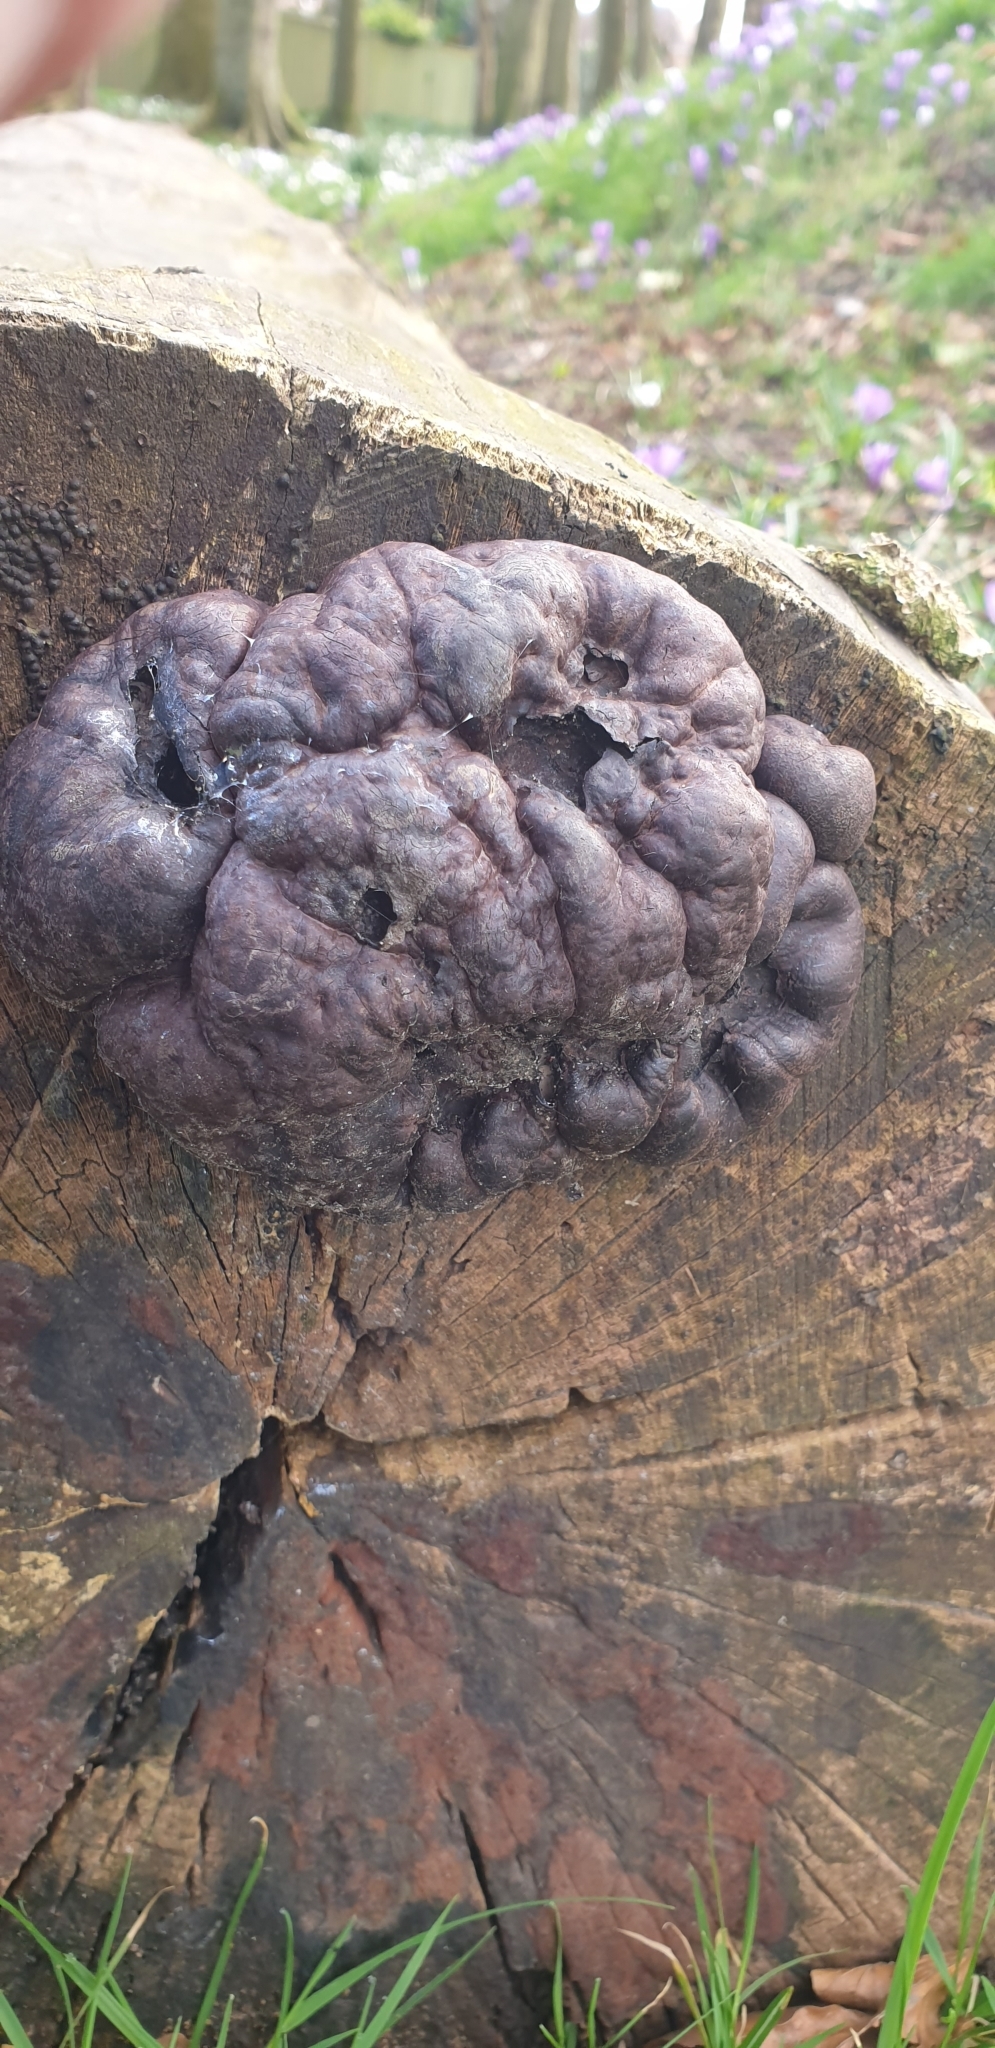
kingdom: Fungi
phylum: Ascomycota
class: Sordariomycetes
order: Xylariales
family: Hypoxylaceae
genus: Daldinia
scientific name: Daldinia concentrica
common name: Cramp balls
